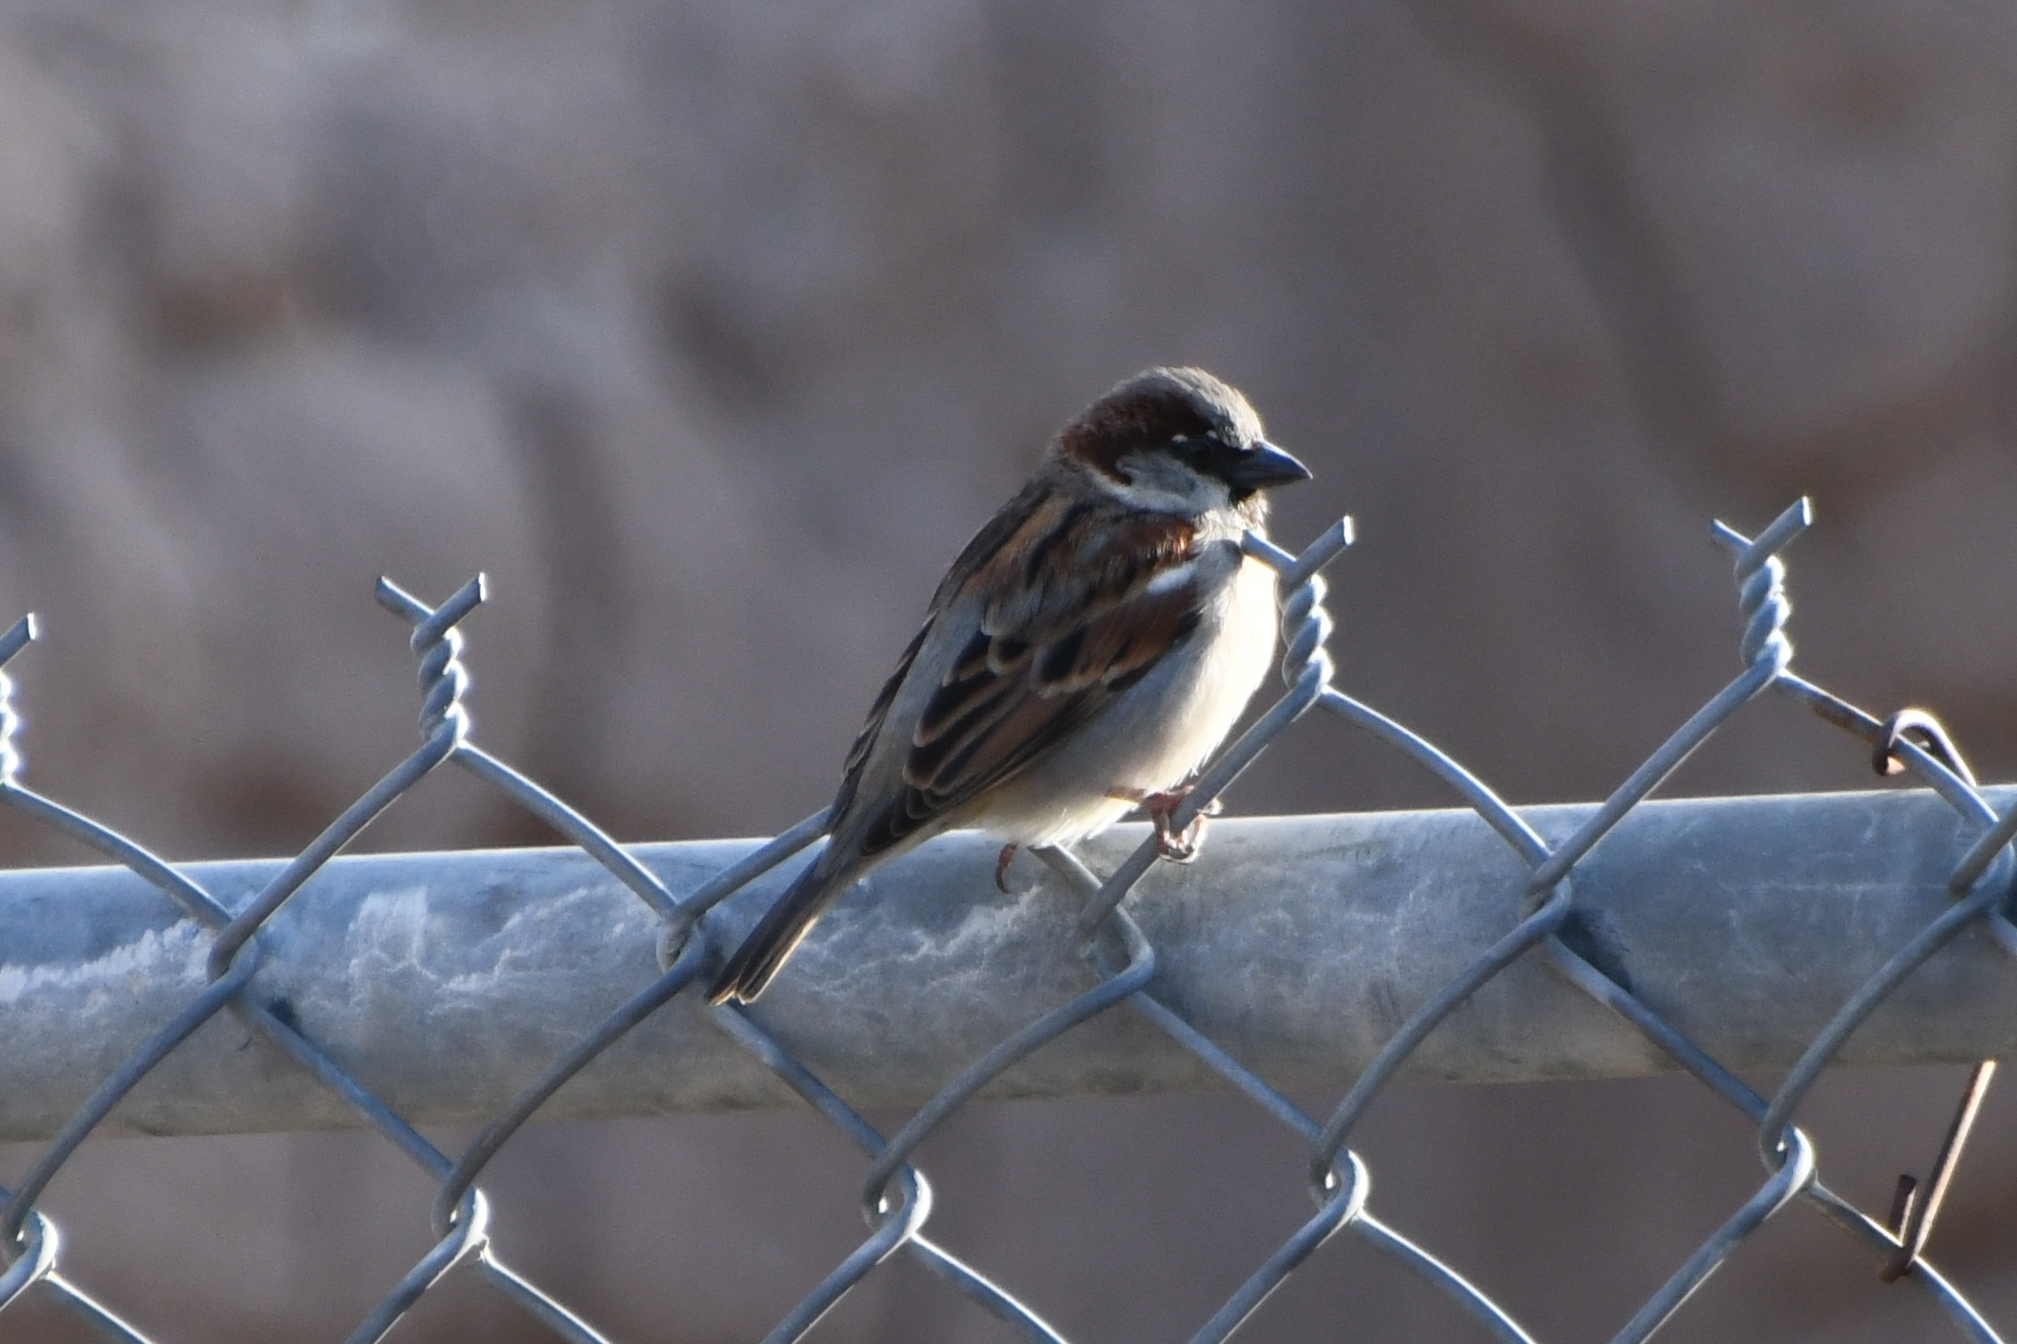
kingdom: Animalia
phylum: Chordata
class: Aves
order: Passeriformes
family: Passeridae
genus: Passer
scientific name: Passer domesticus
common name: House sparrow
